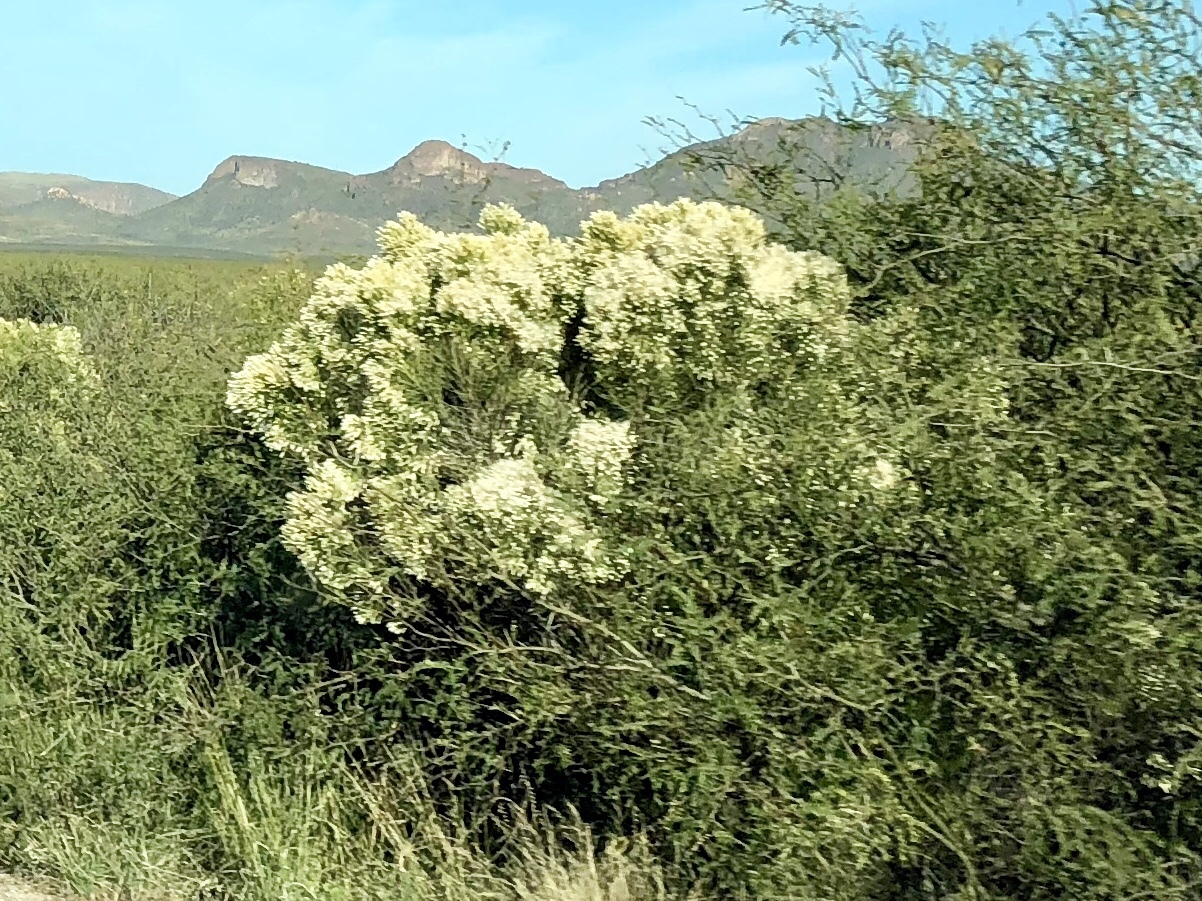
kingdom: Plantae
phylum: Tracheophyta
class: Magnoliopsida
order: Asterales
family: Asteraceae
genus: Baccharis
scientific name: Baccharis sarothroides
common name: Desert-broom
